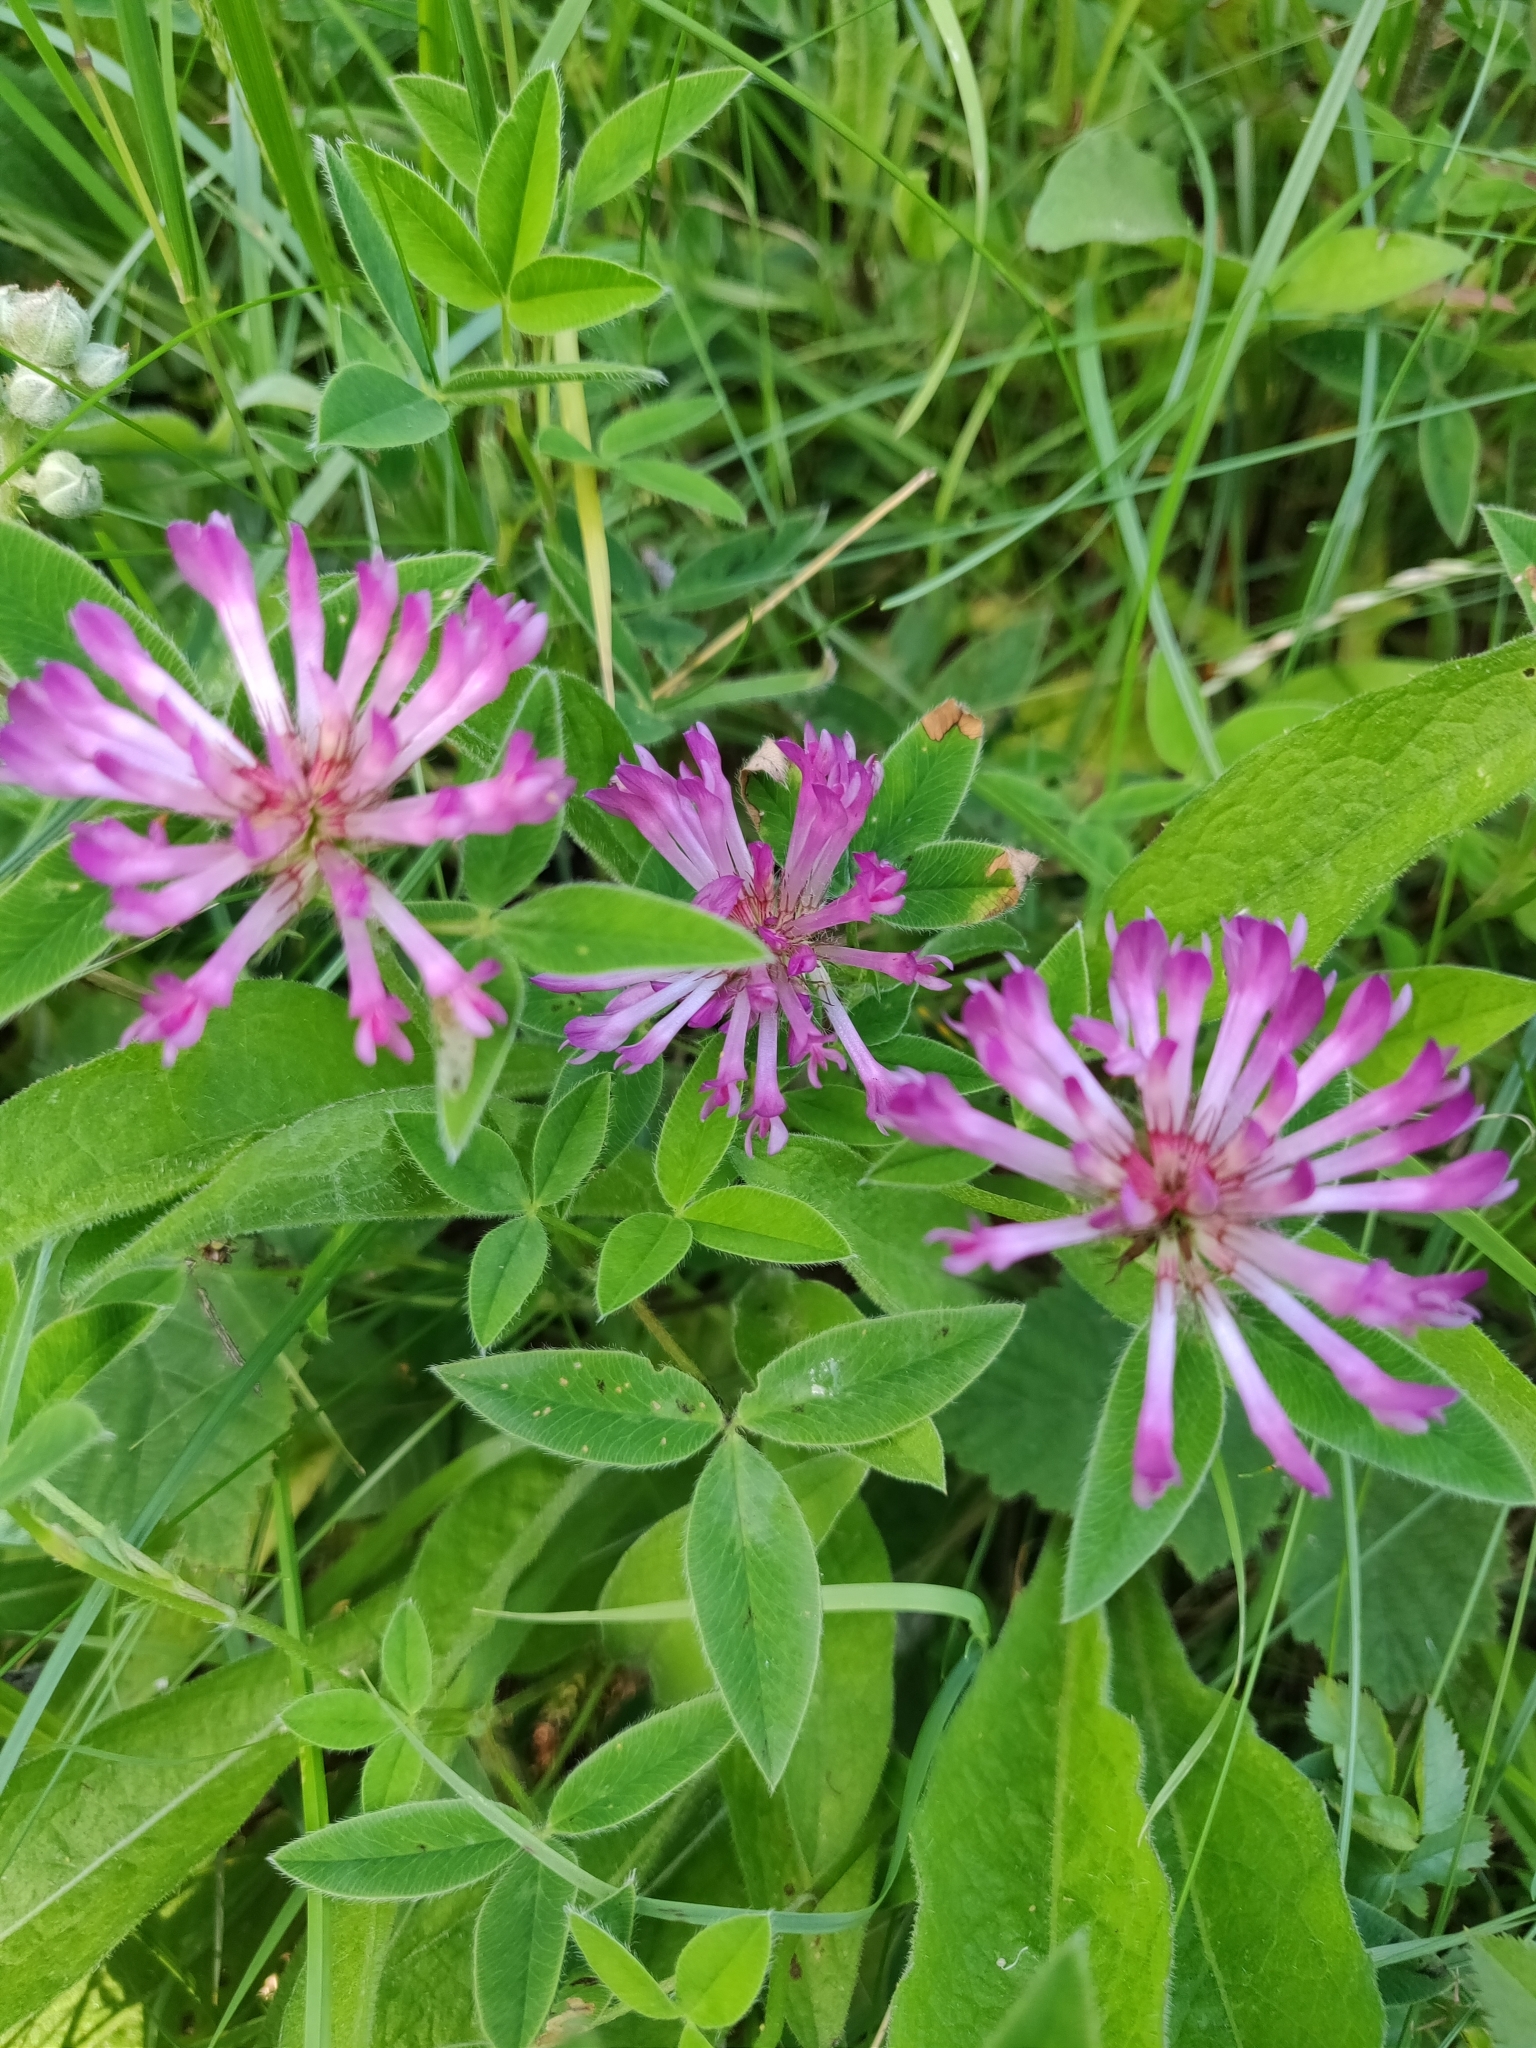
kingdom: Plantae
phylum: Tracheophyta
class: Magnoliopsida
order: Fabales
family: Fabaceae
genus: Trifolium
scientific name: Trifolium medium
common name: Zigzag clover
